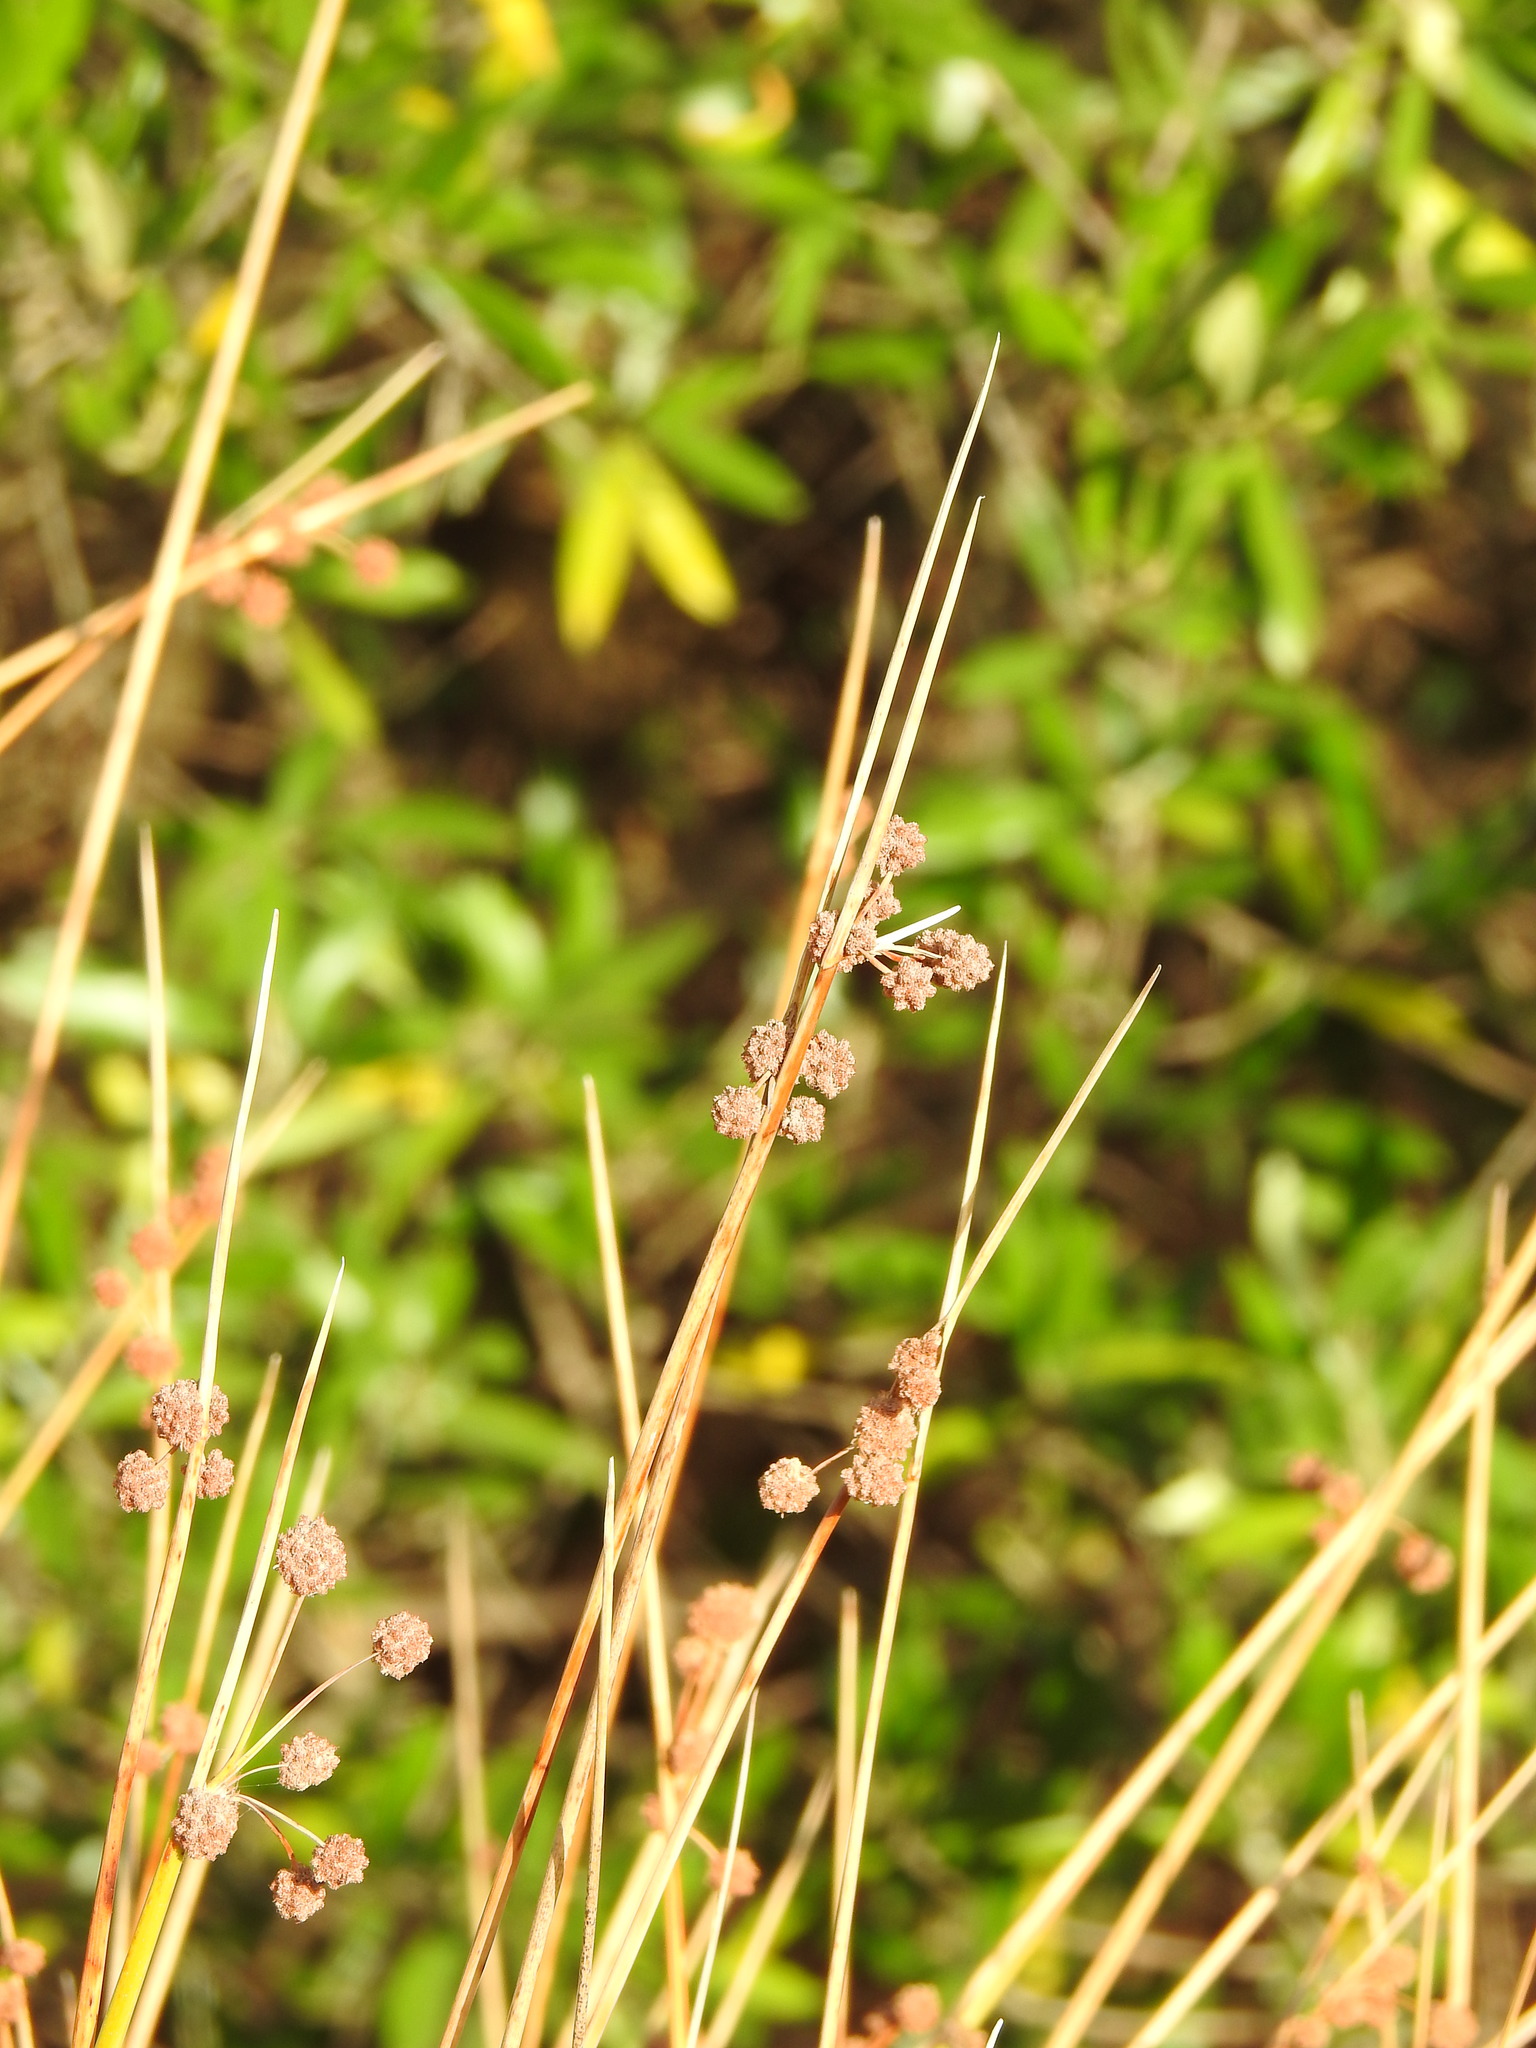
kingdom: Plantae
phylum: Tracheophyta
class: Liliopsida
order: Poales
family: Cyperaceae
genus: Scirpoides
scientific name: Scirpoides holoschoenus
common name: Round-headed club-rush
